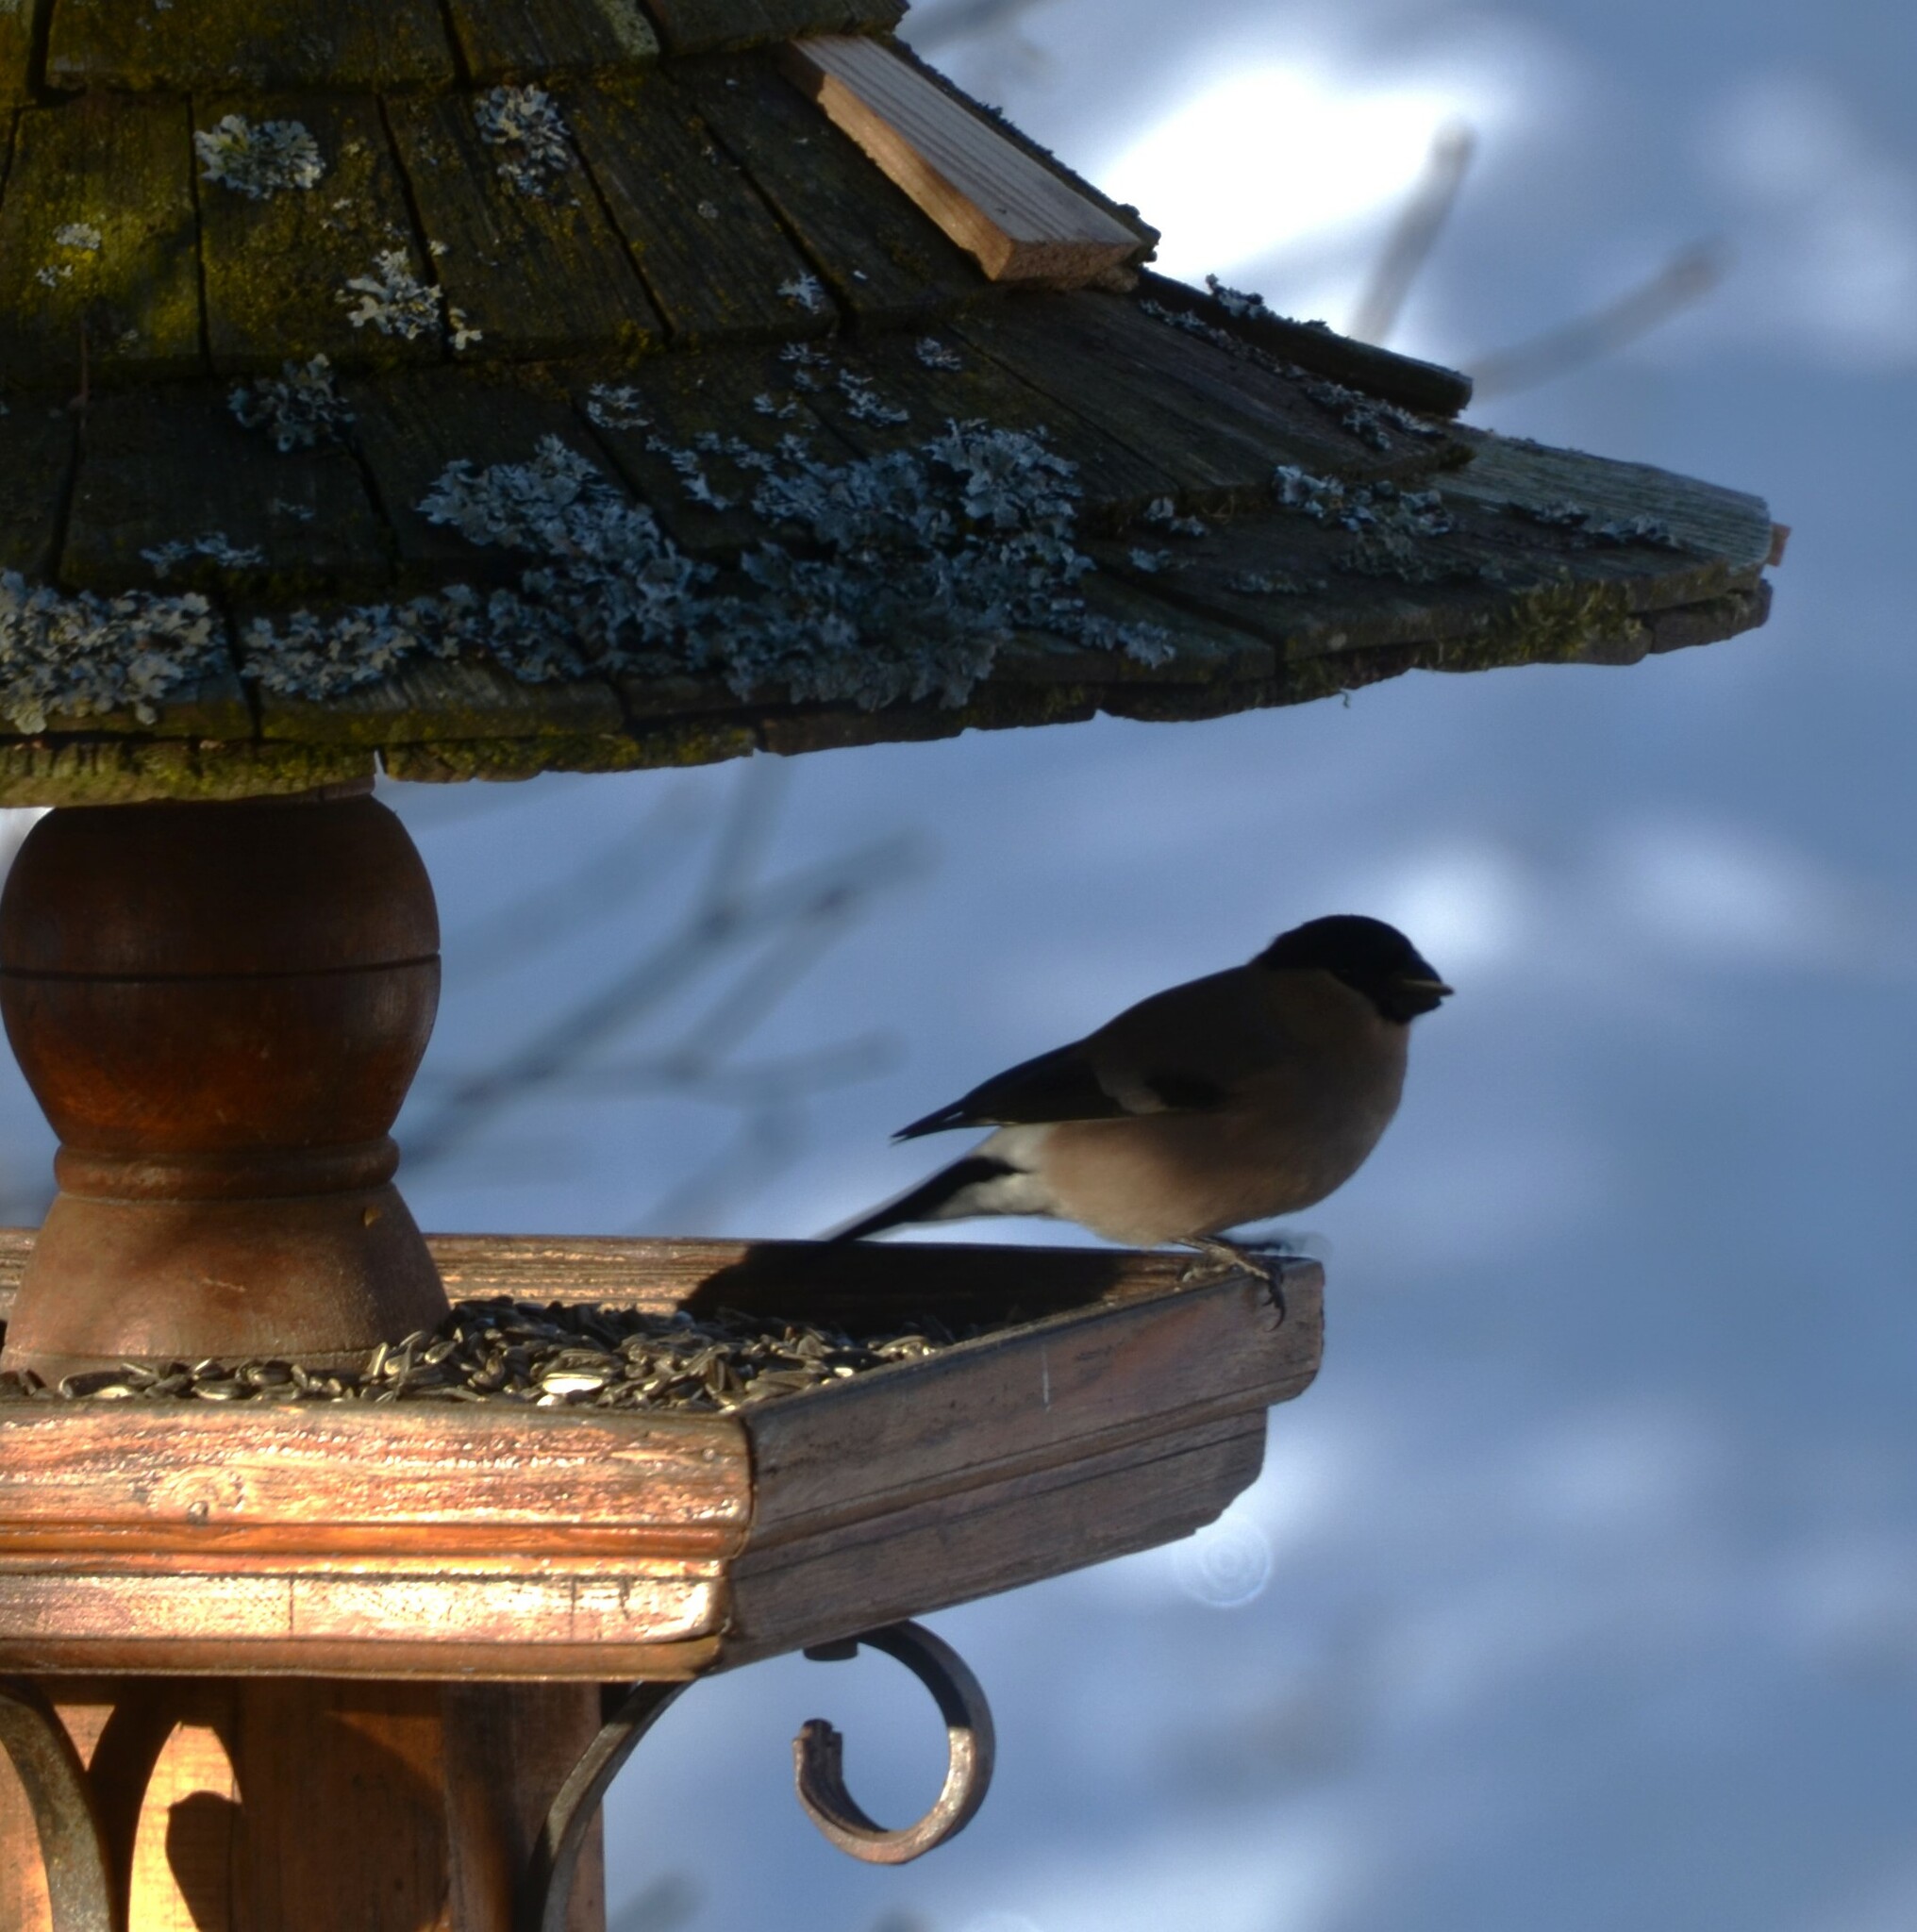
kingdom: Animalia
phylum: Chordata
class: Aves
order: Passeriformes
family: Fringillidae
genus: Pyrrhula
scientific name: Pyrrhula pyrrhula
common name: Eurasian bullfinch
